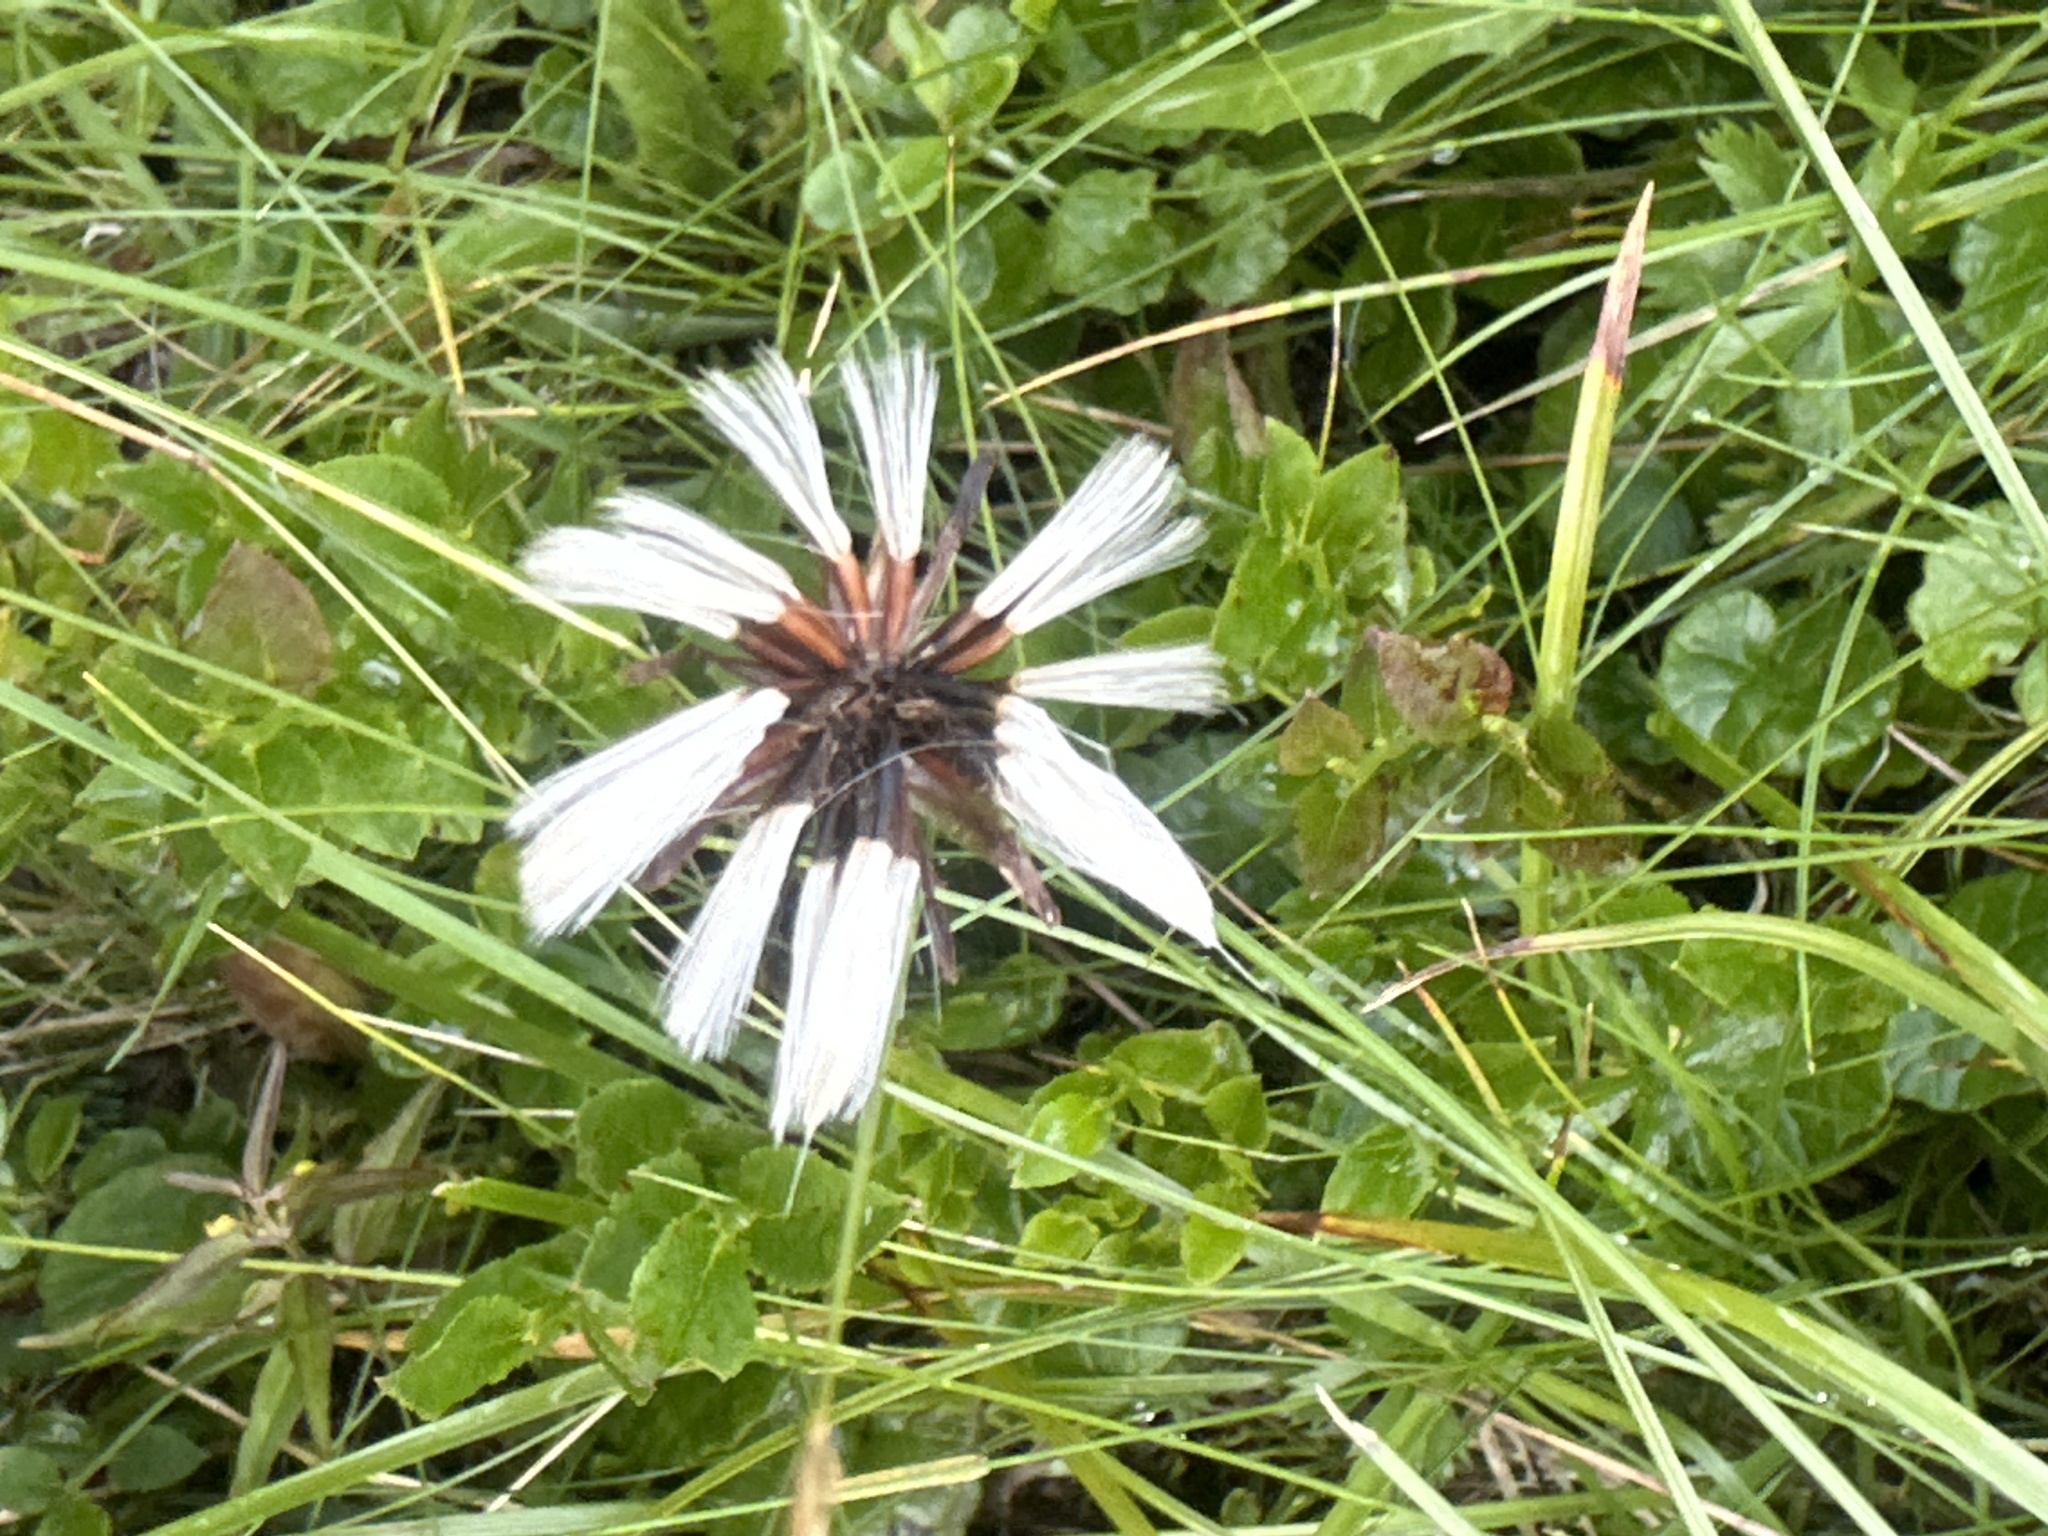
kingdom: Plantae
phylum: Tracheophyta
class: Magnoliopsida
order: Asterales
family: Asteraceae
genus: Homogyne
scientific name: Homogyne alpina
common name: Purple colt's-foot
